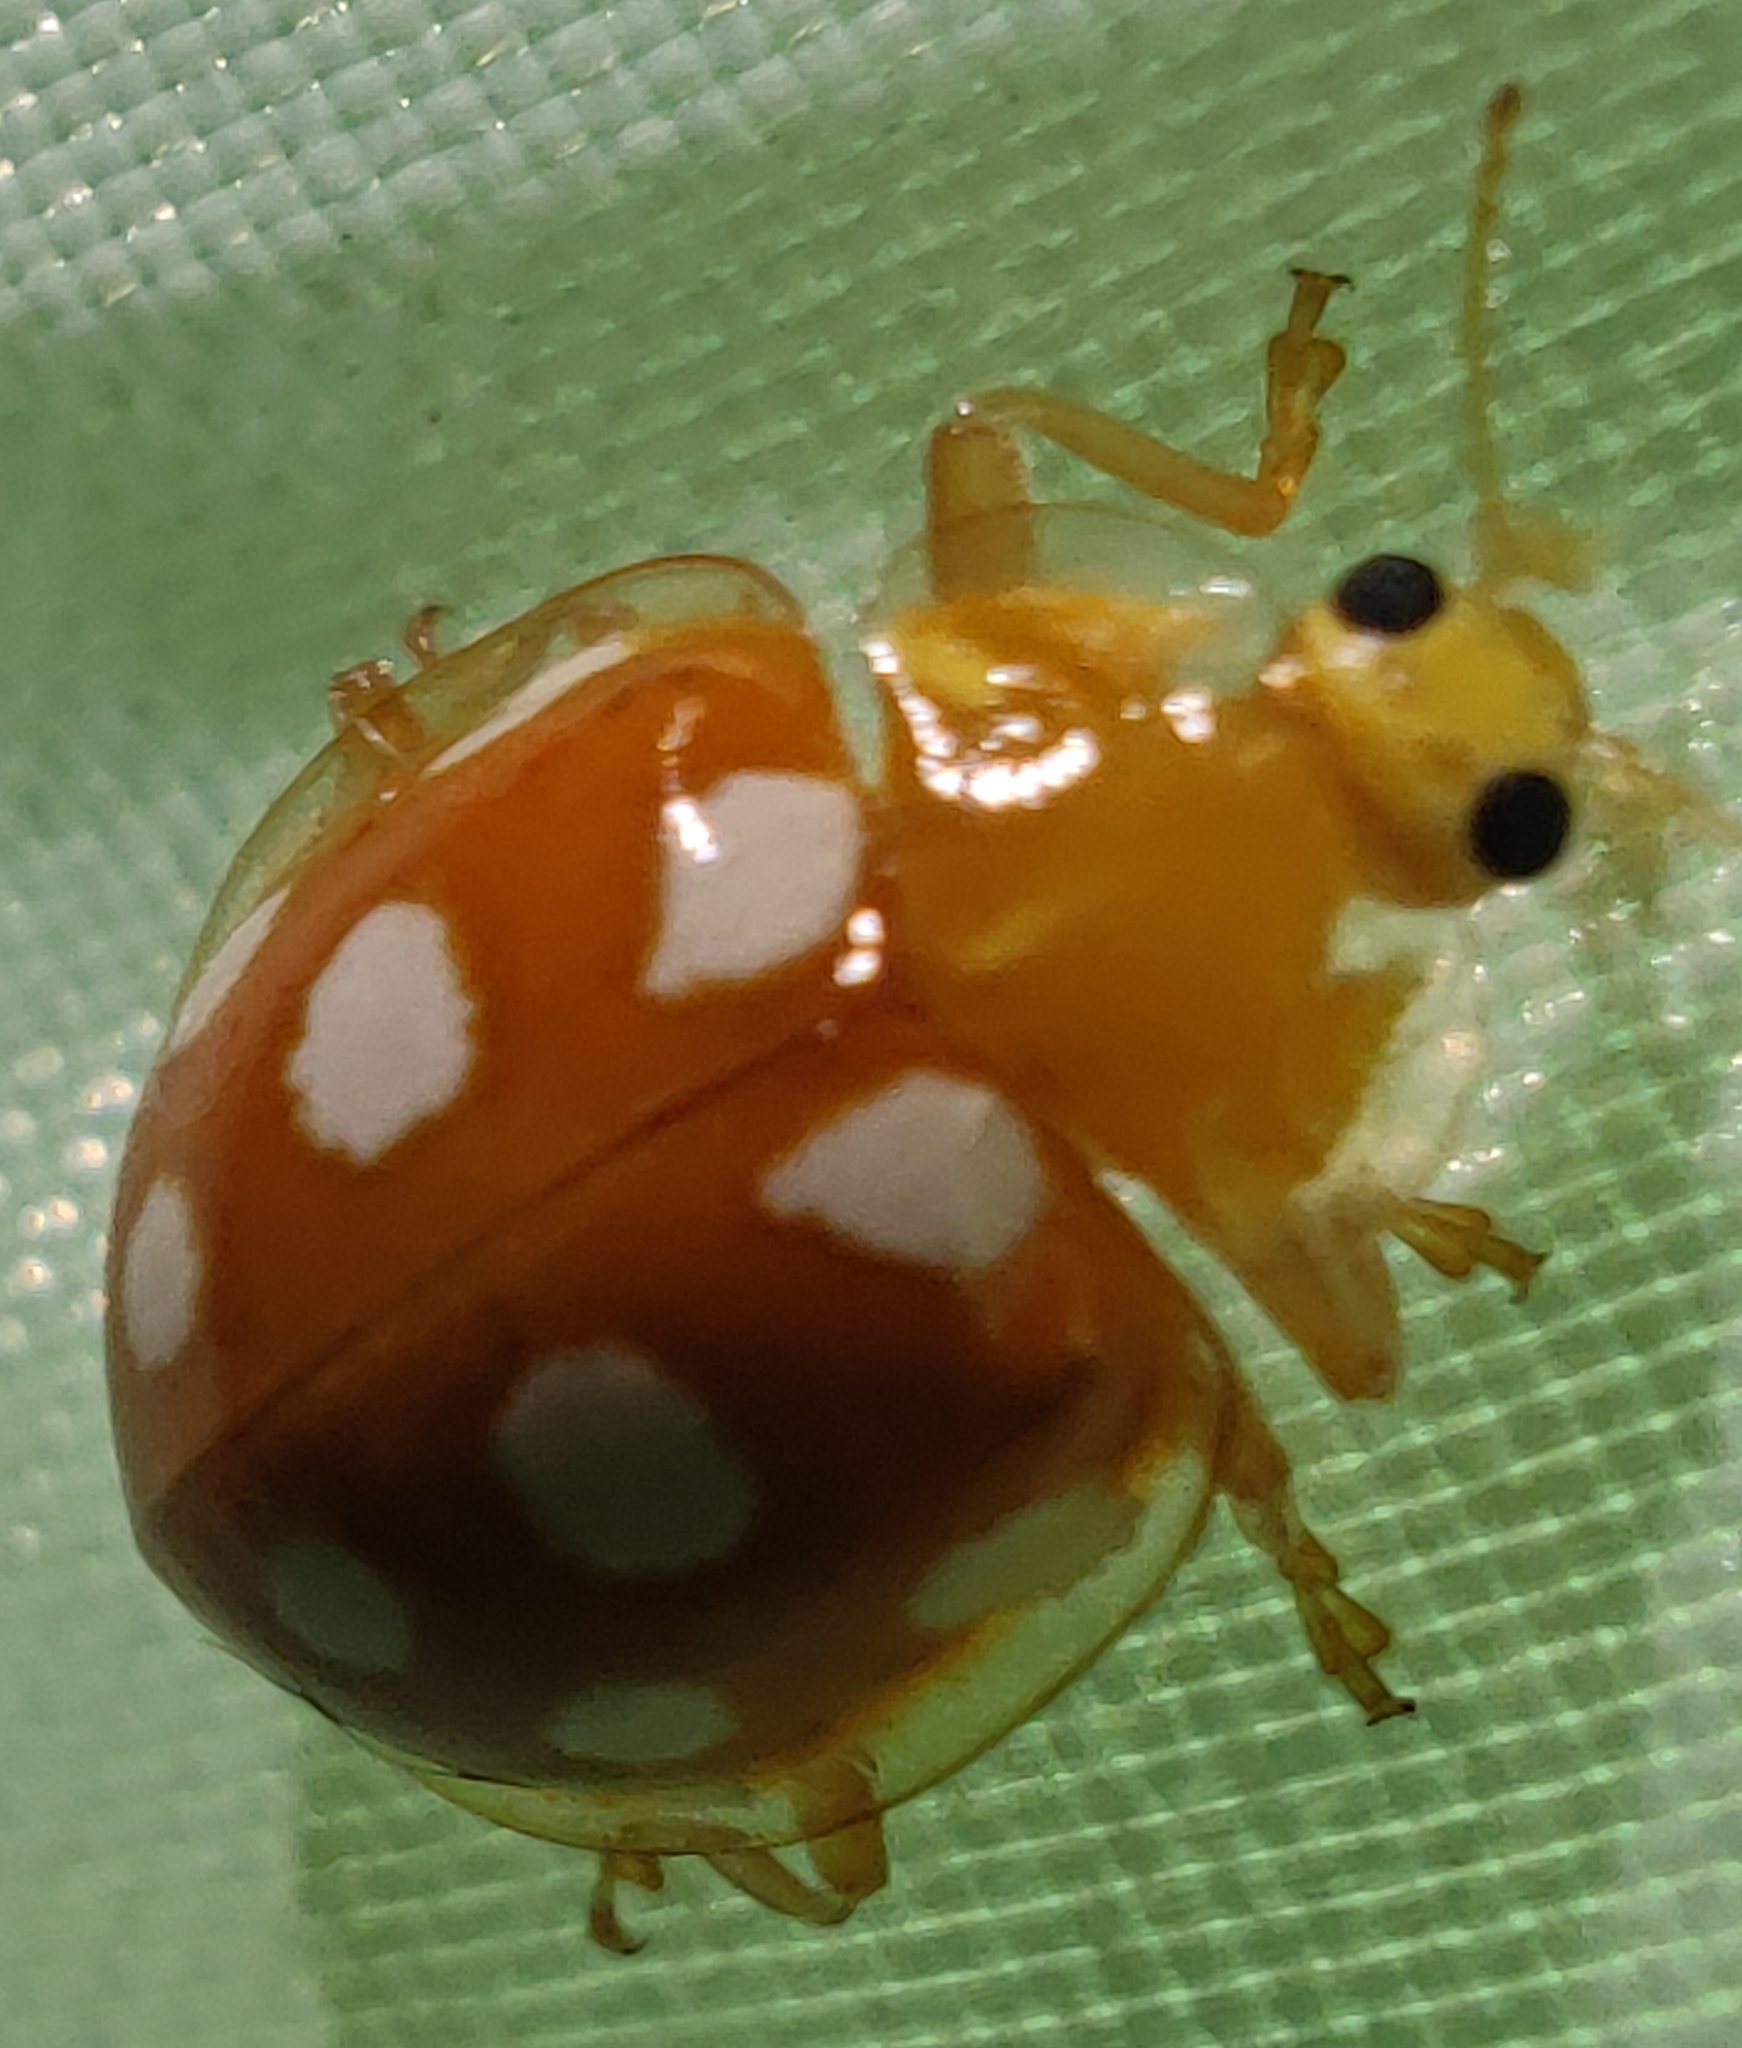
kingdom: Animalia
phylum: Arthropoda
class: Insecta
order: Coleoptera
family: Coccinellidae
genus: Halyzia
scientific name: Halyzia sedecimguttata
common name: Orange ladybird
